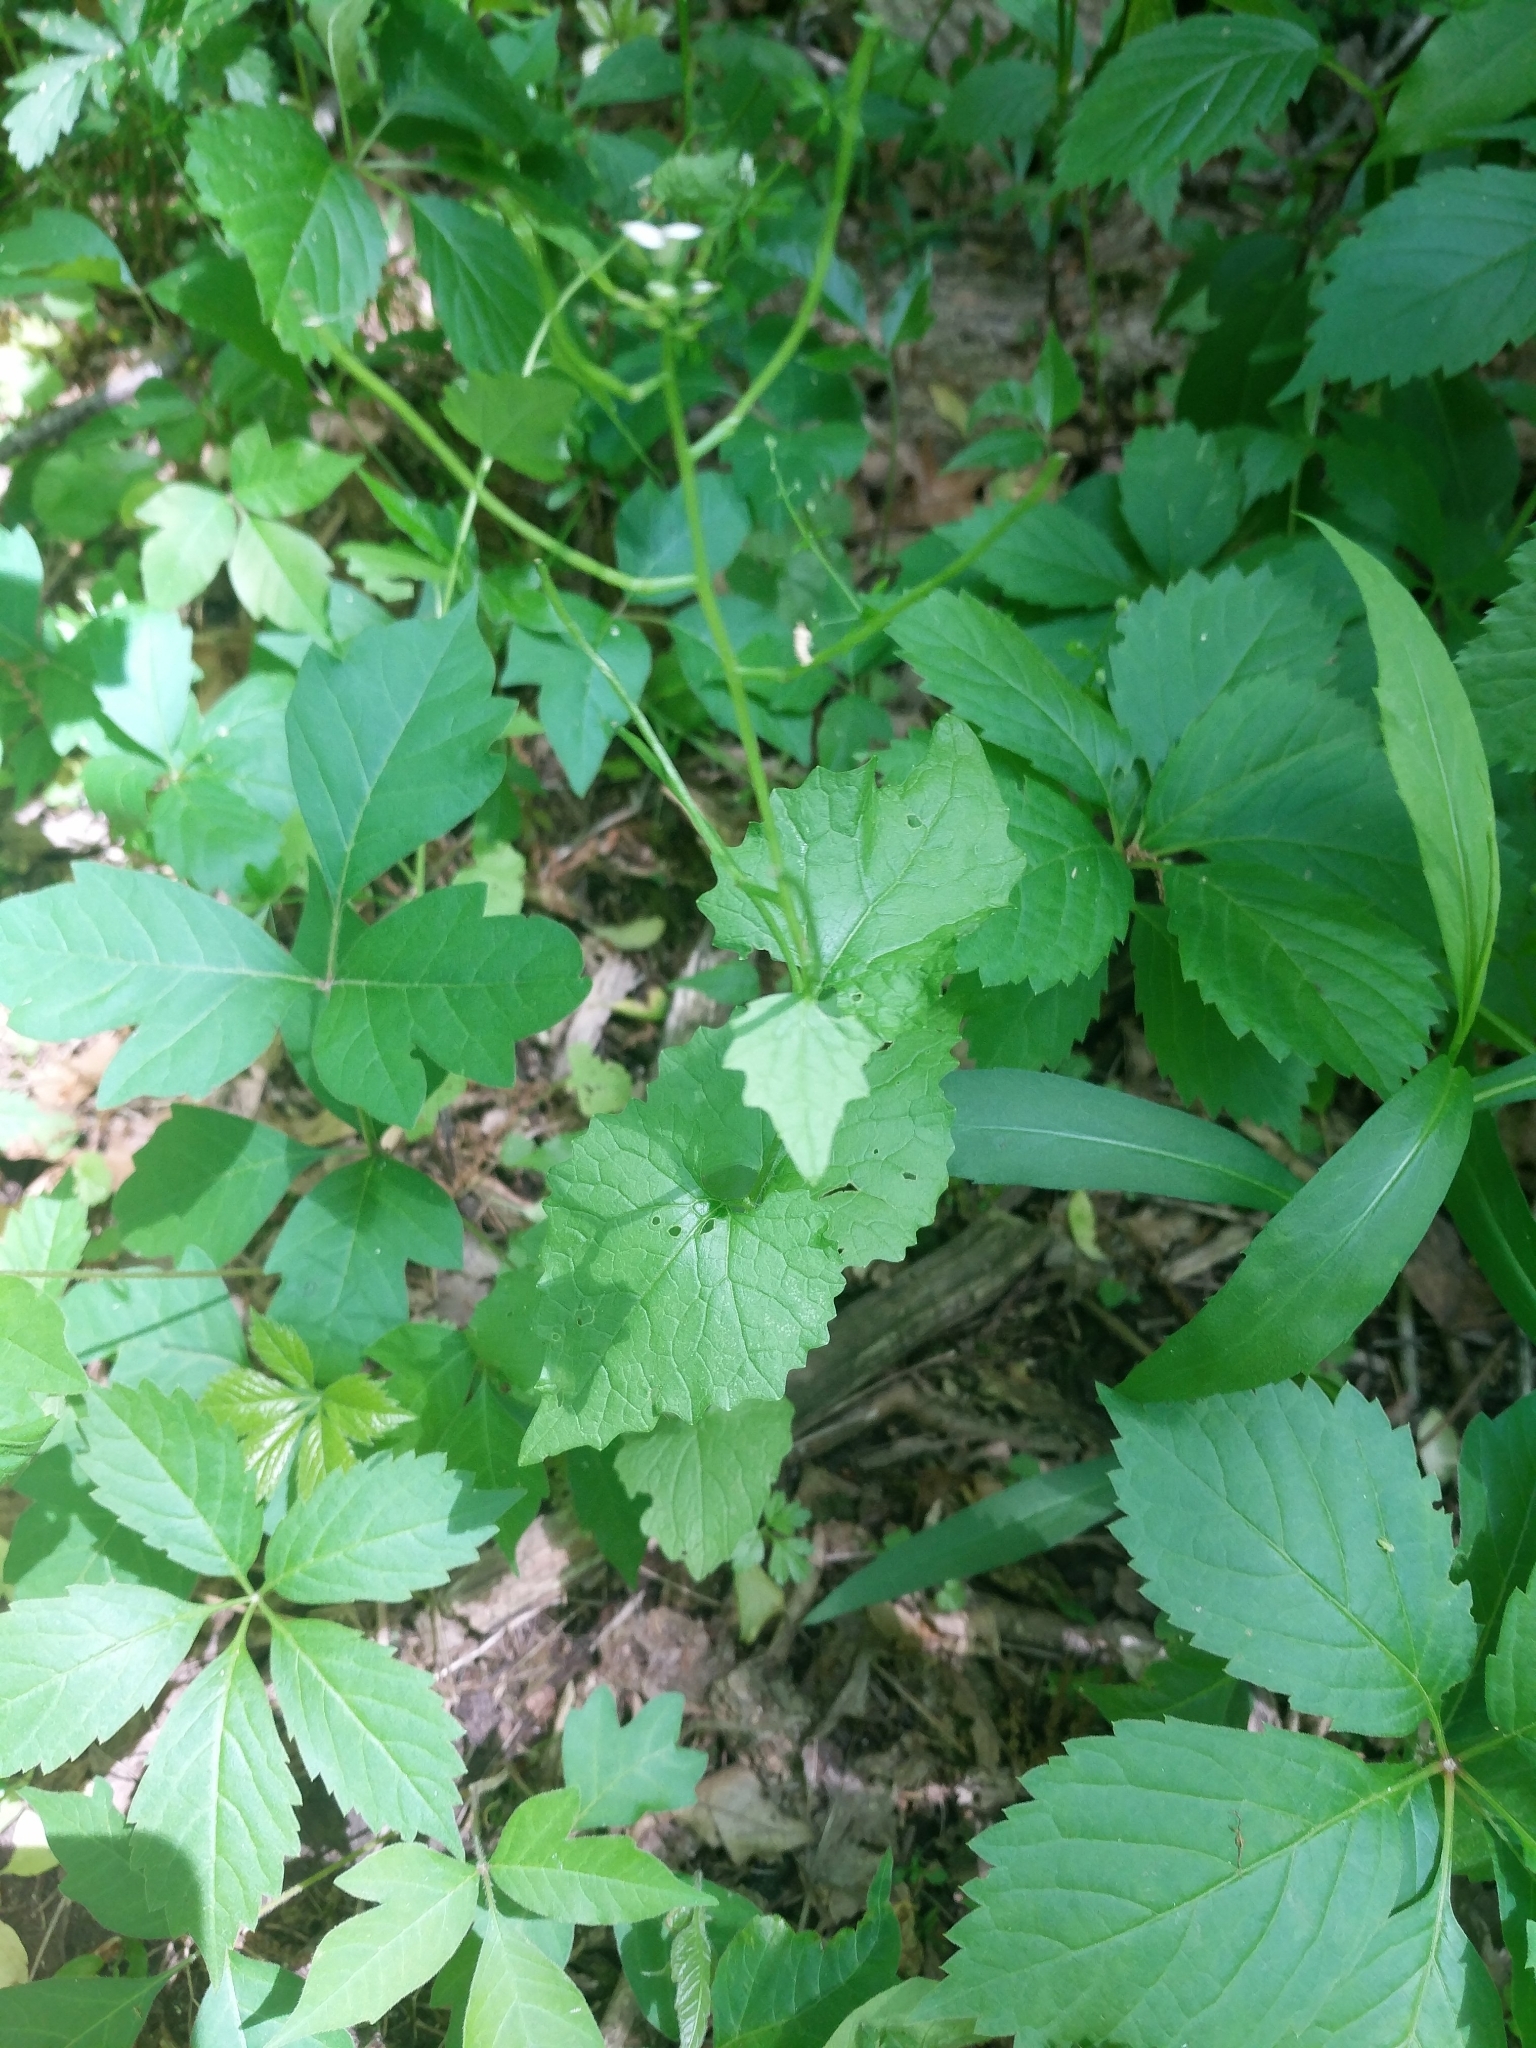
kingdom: Plantae
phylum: Tracheophyta
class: Magnoliopsida
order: Brassicales
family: Brassicaceae
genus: Alliaria
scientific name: Alliaria petiolata
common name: Garlic mustard
